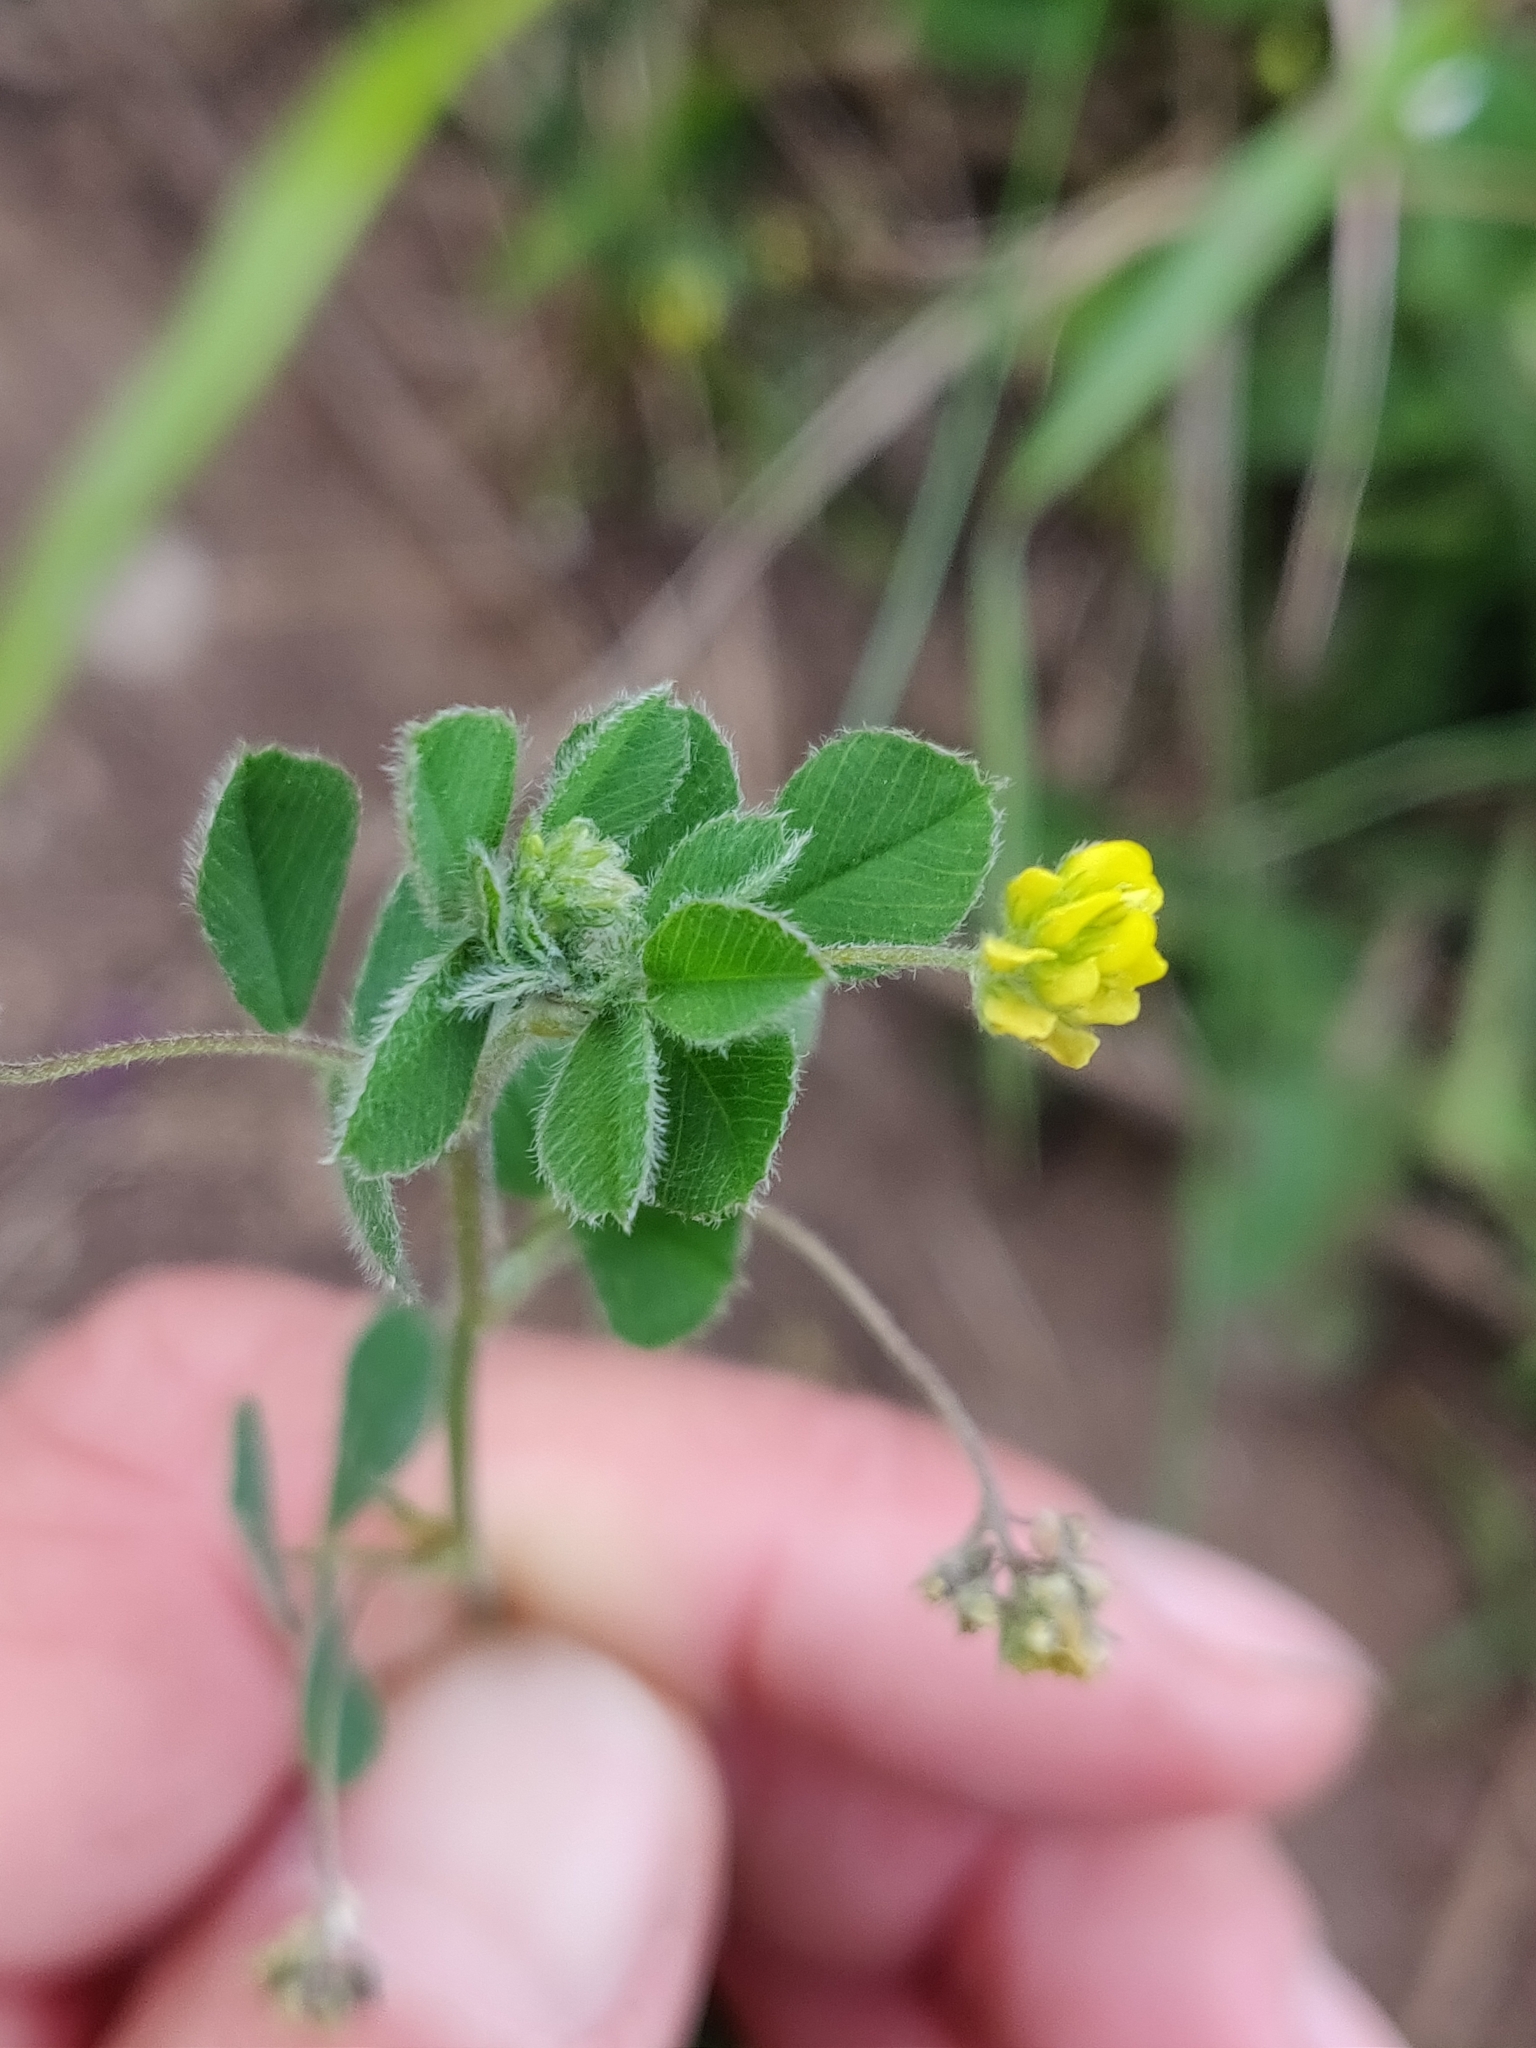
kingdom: Plantae
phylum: Tracheophyta
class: Magnoliopsida
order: Fabales
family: Fabaceae
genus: Medicago
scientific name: Medicago lupulina
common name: Black medick
